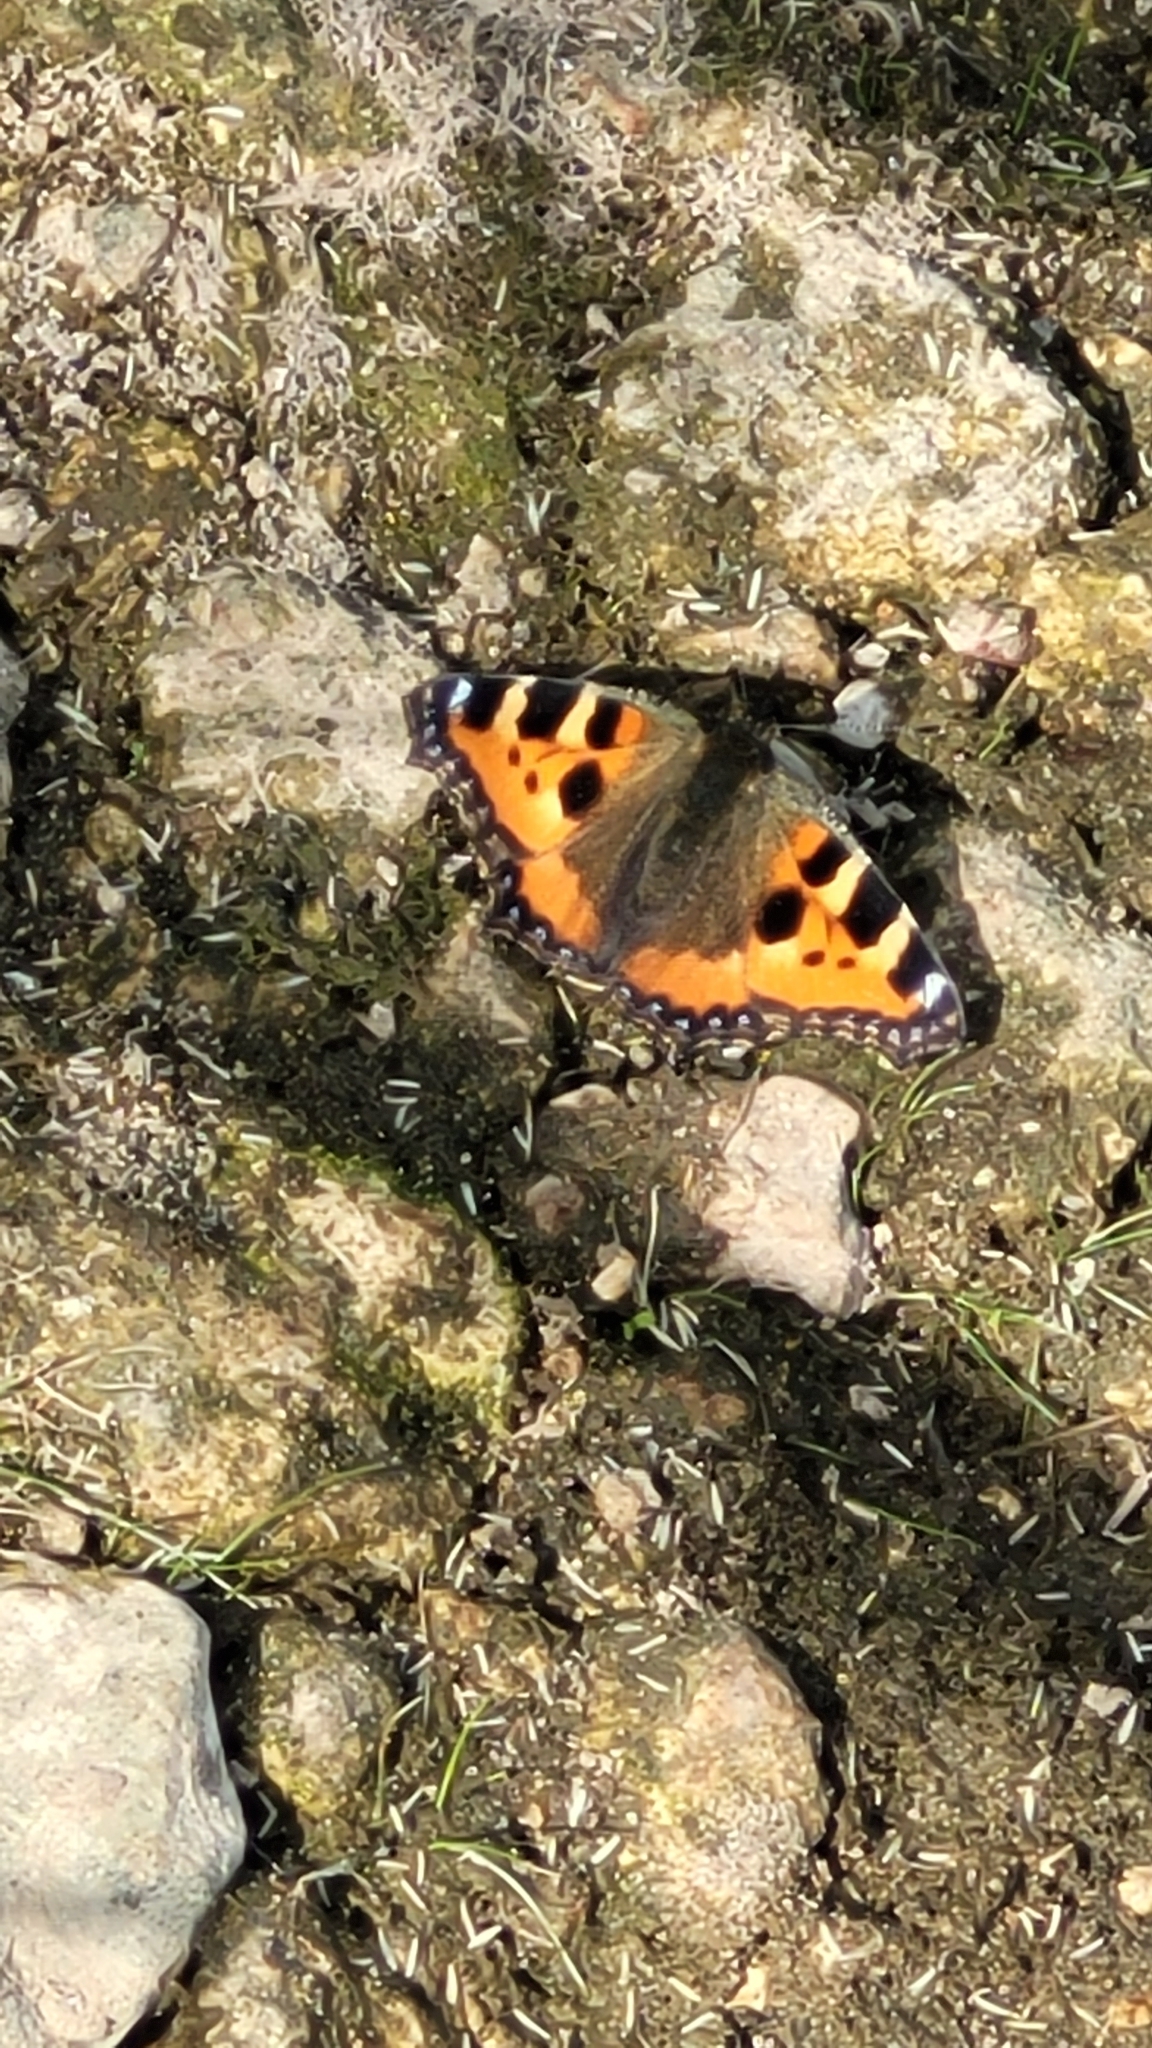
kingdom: Animalia
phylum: Arthropoda
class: Insecta
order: Lepidoptera
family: Nymphalidae
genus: Aglais
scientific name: Aglais urticae
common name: Small tortoiseshell
